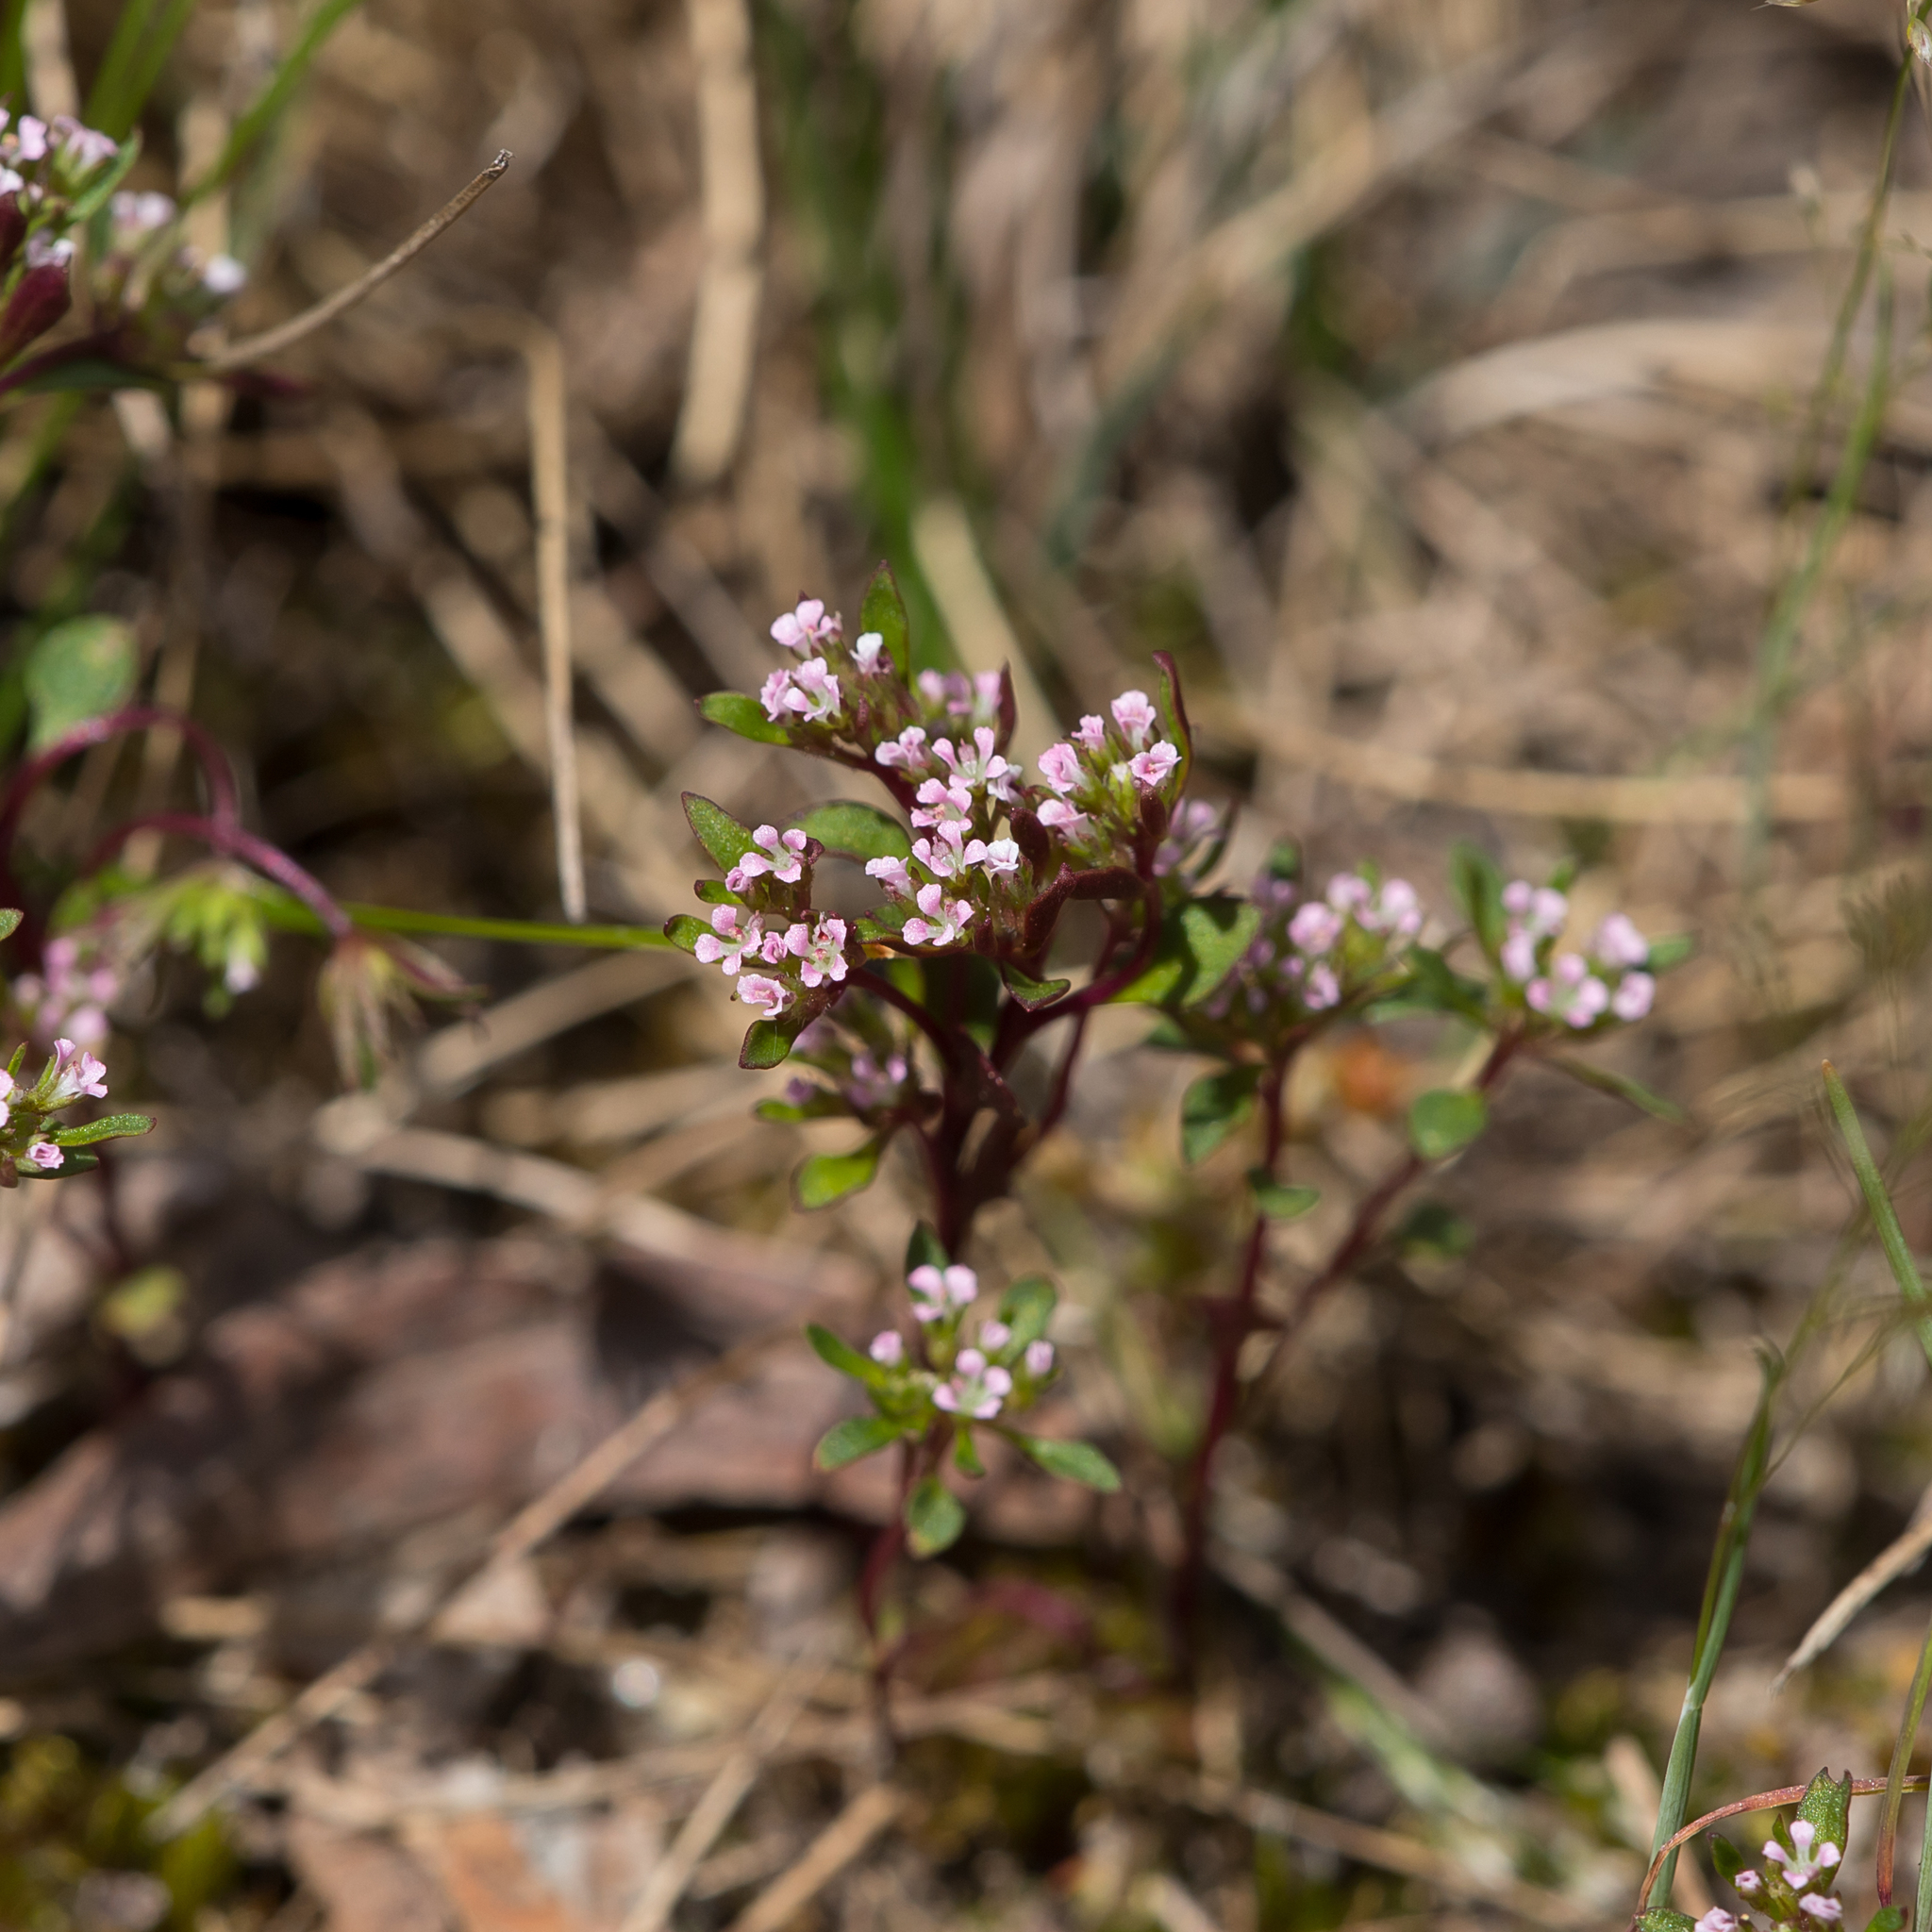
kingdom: Plantae
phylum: Tracheophyta
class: Magnoliopsida
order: Asterales
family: Stylidiaceae
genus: Levenhookia
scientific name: Levenhookia pusilla
